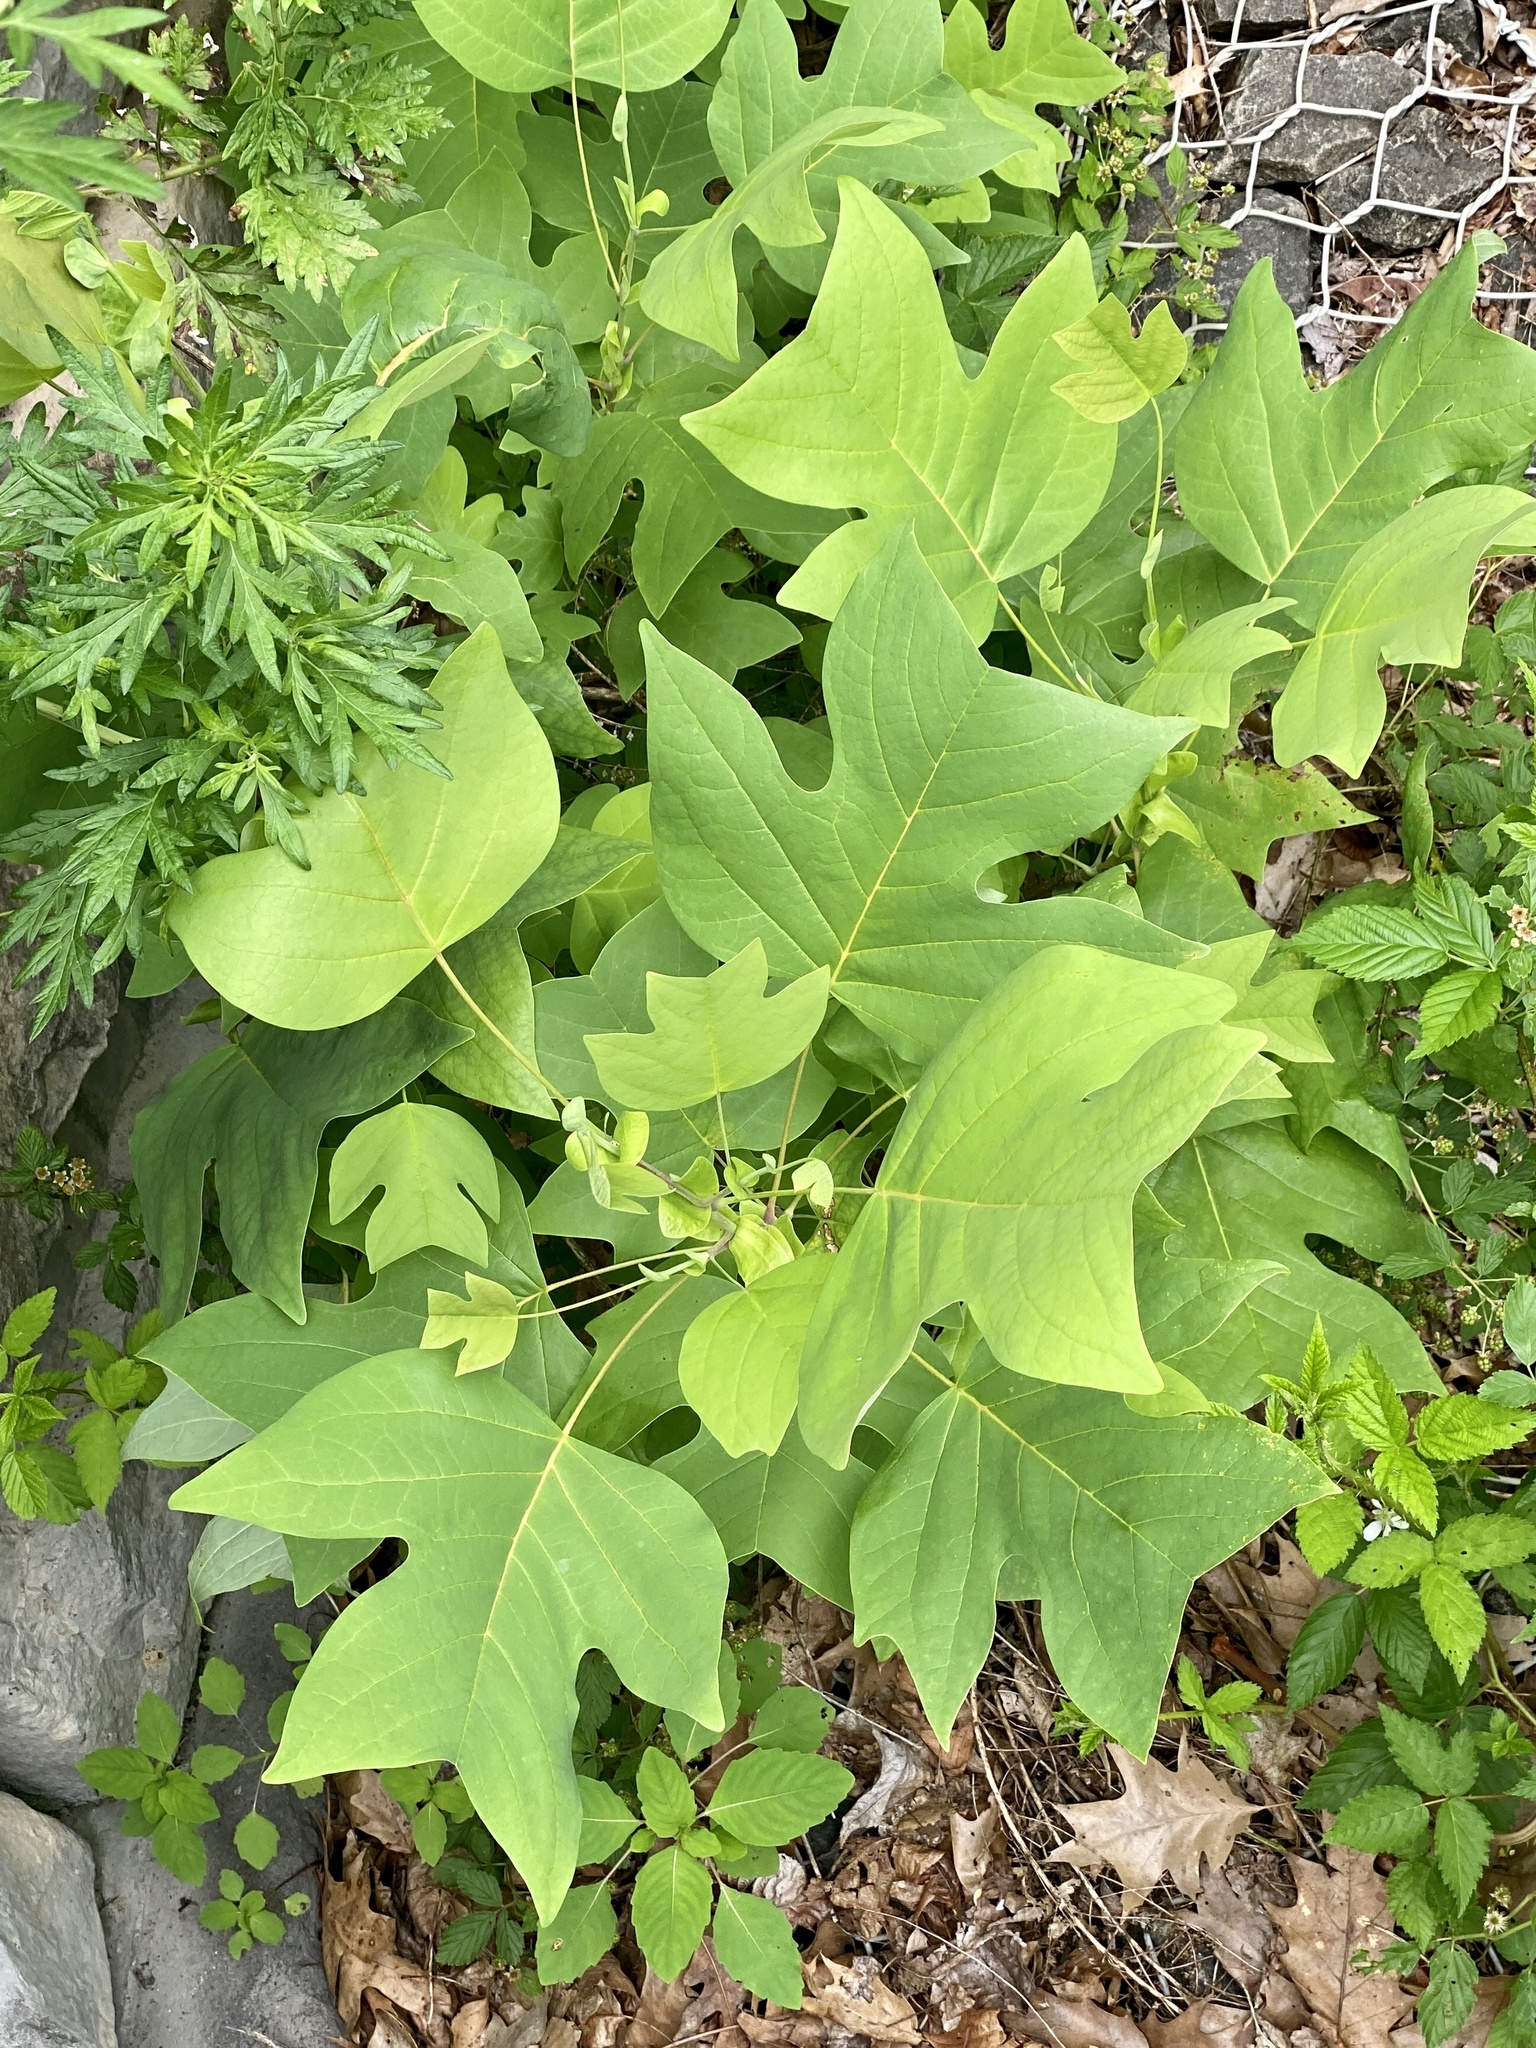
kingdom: Plantae
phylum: Tracheophyta
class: Magnoliopsida
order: Magnoliales
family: Magnoliaceae
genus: Liriodendron
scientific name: Liriodendron tulipifera
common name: Tulip tree
